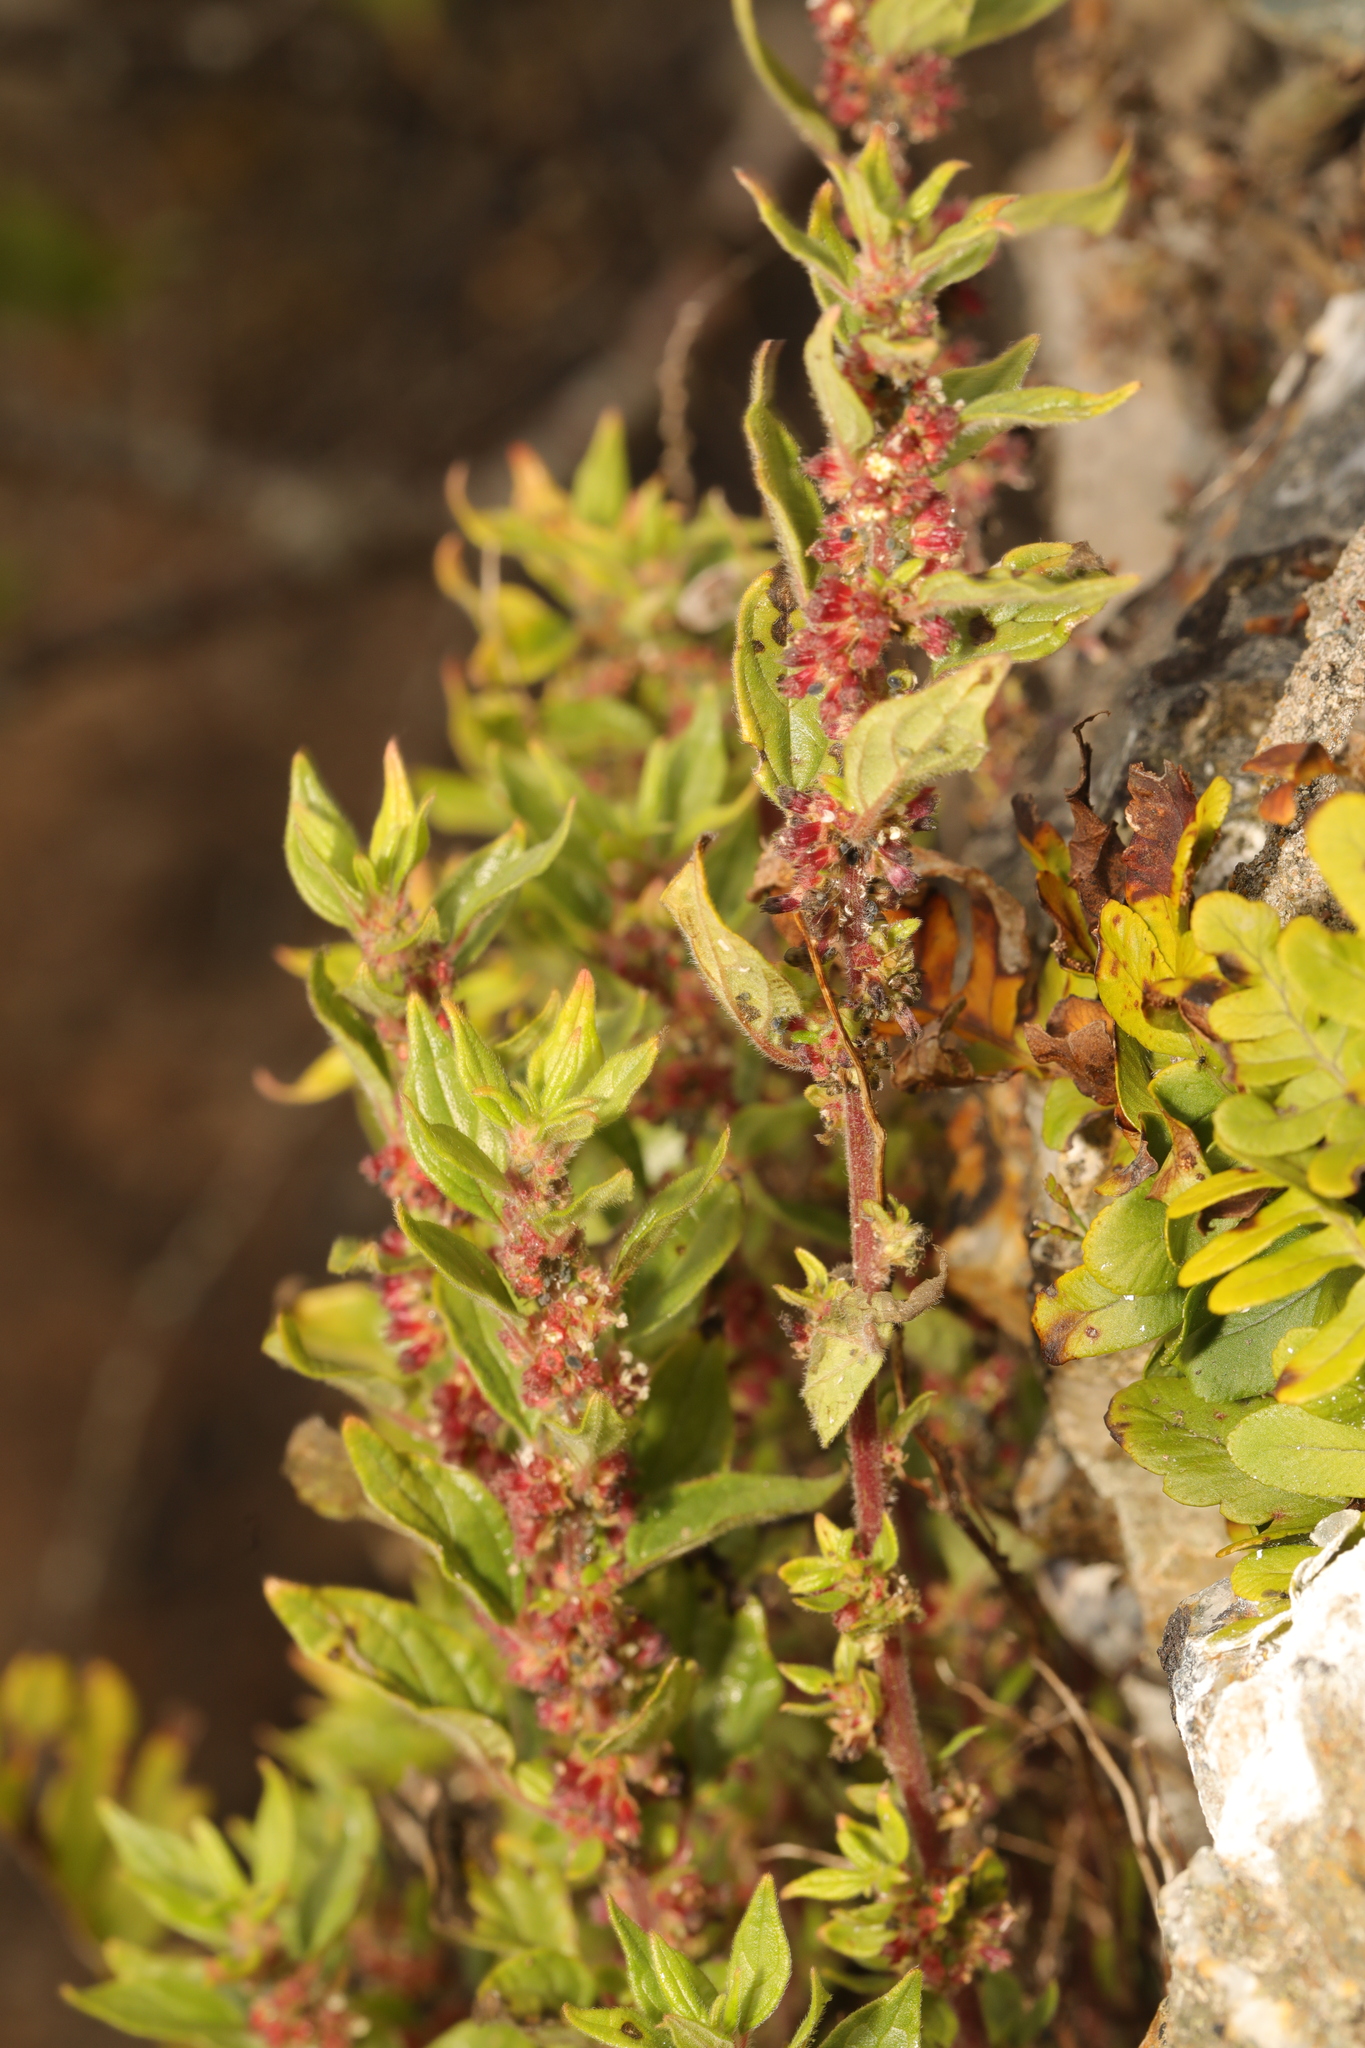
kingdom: Plantae
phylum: Tracheophyta
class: Magnoliopsida
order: Rosales
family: Urticaceae
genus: Parietaria
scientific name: Parietaria judaica
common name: Pellitory-of-the-wall
